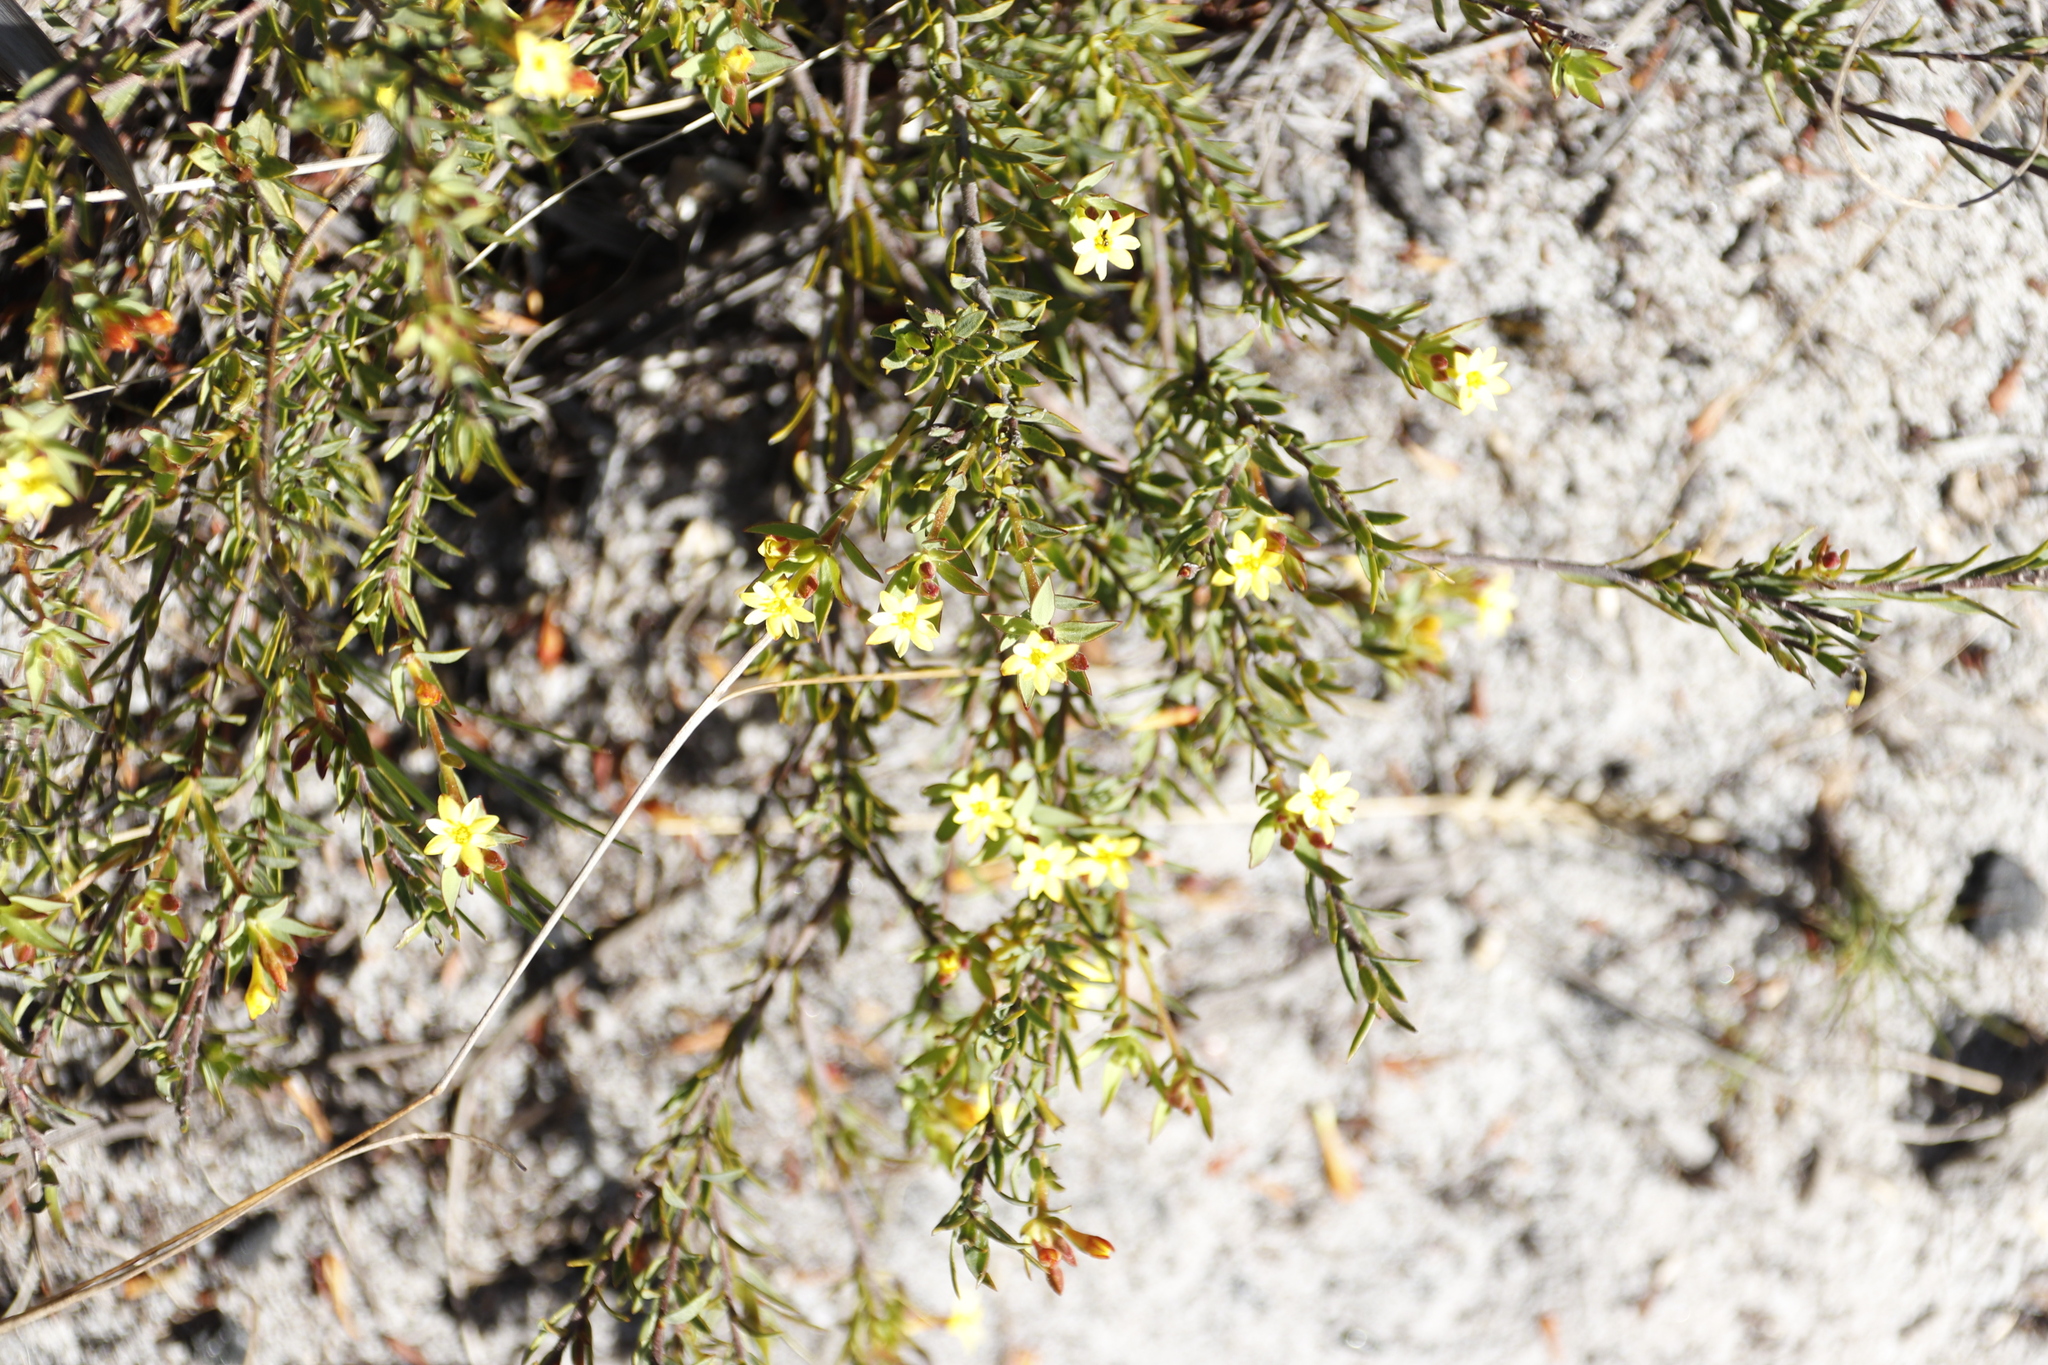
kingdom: Plantae
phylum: Tracheophyta
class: Magnoliopsida
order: Malvales
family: Thymelaeaceae
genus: Gnidia
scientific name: Gnidia juniperifolia
